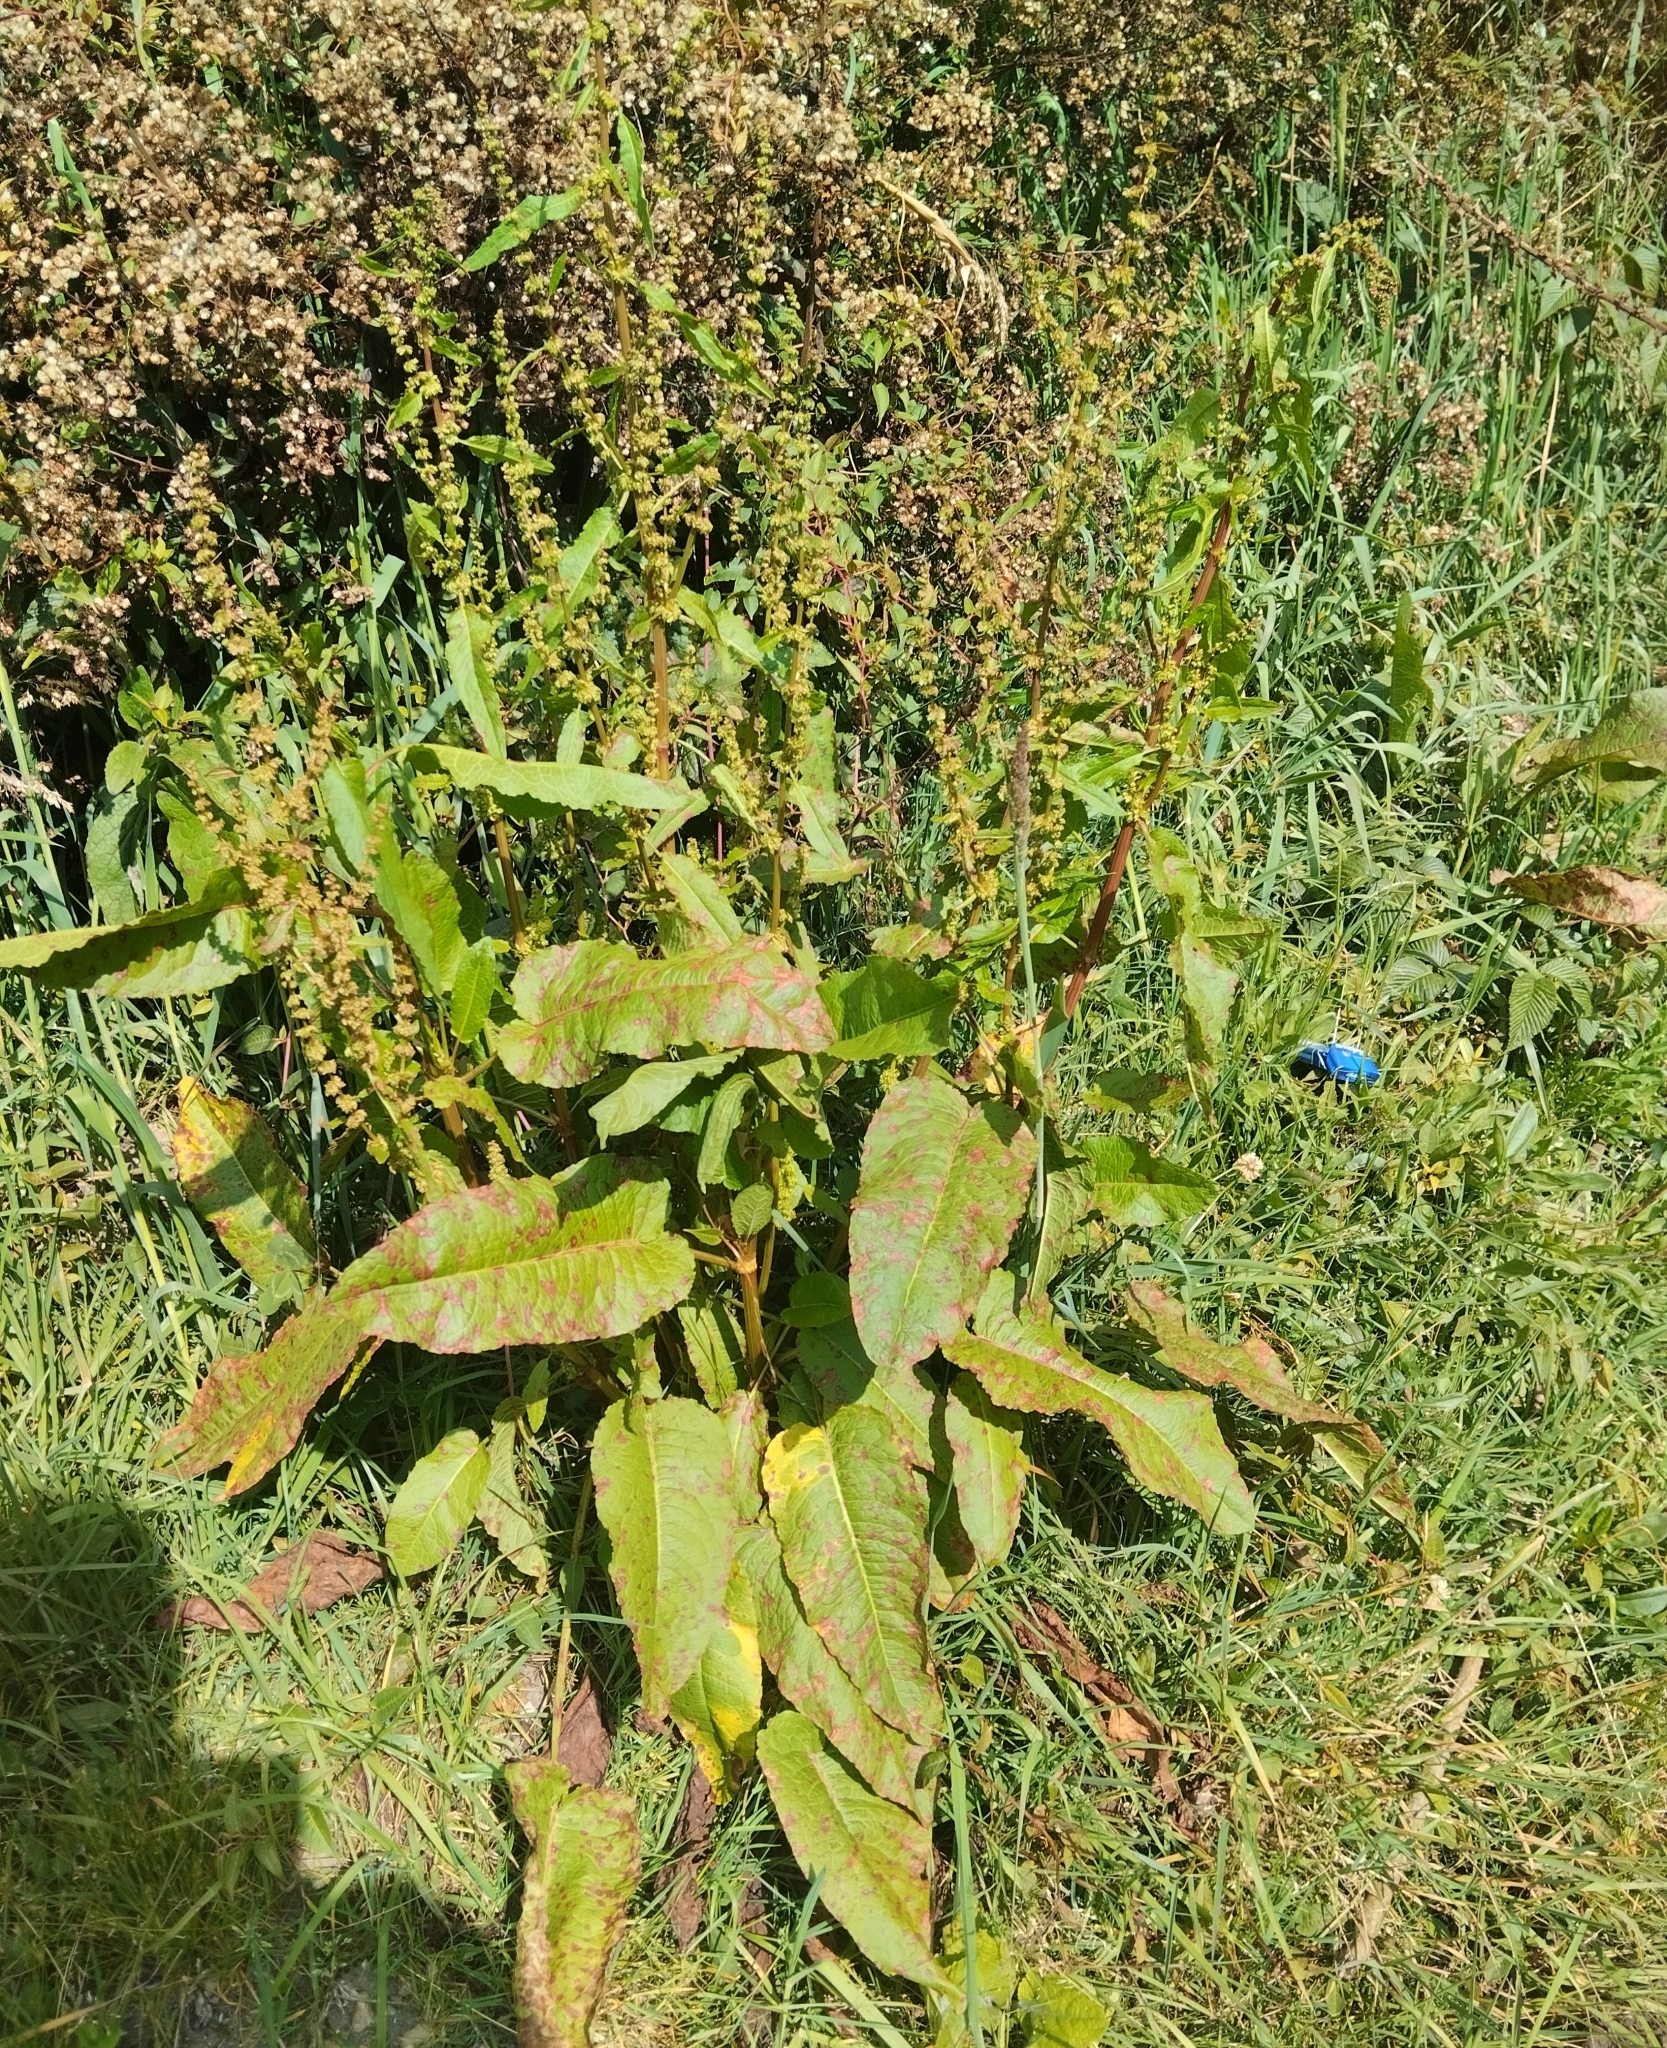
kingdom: Plantae
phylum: Tracheophyta
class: Magnoliopsida
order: Caryophyllales
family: Polygonaceae
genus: Rumex
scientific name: Rumex obtusifolius
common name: Bitter dock
